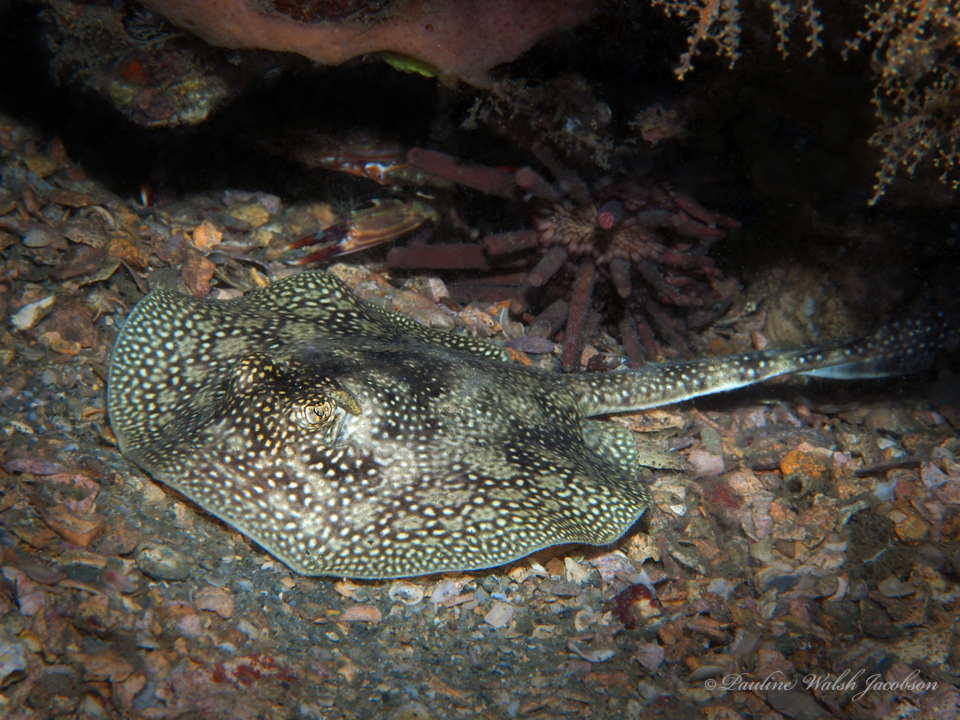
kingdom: Animalia
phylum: Chordata
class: Elasmobranchii
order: Myliobatiformes
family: Urotrygonidae
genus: Urobatis
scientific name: Urobatis jamaicensis
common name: Yellow stingray
